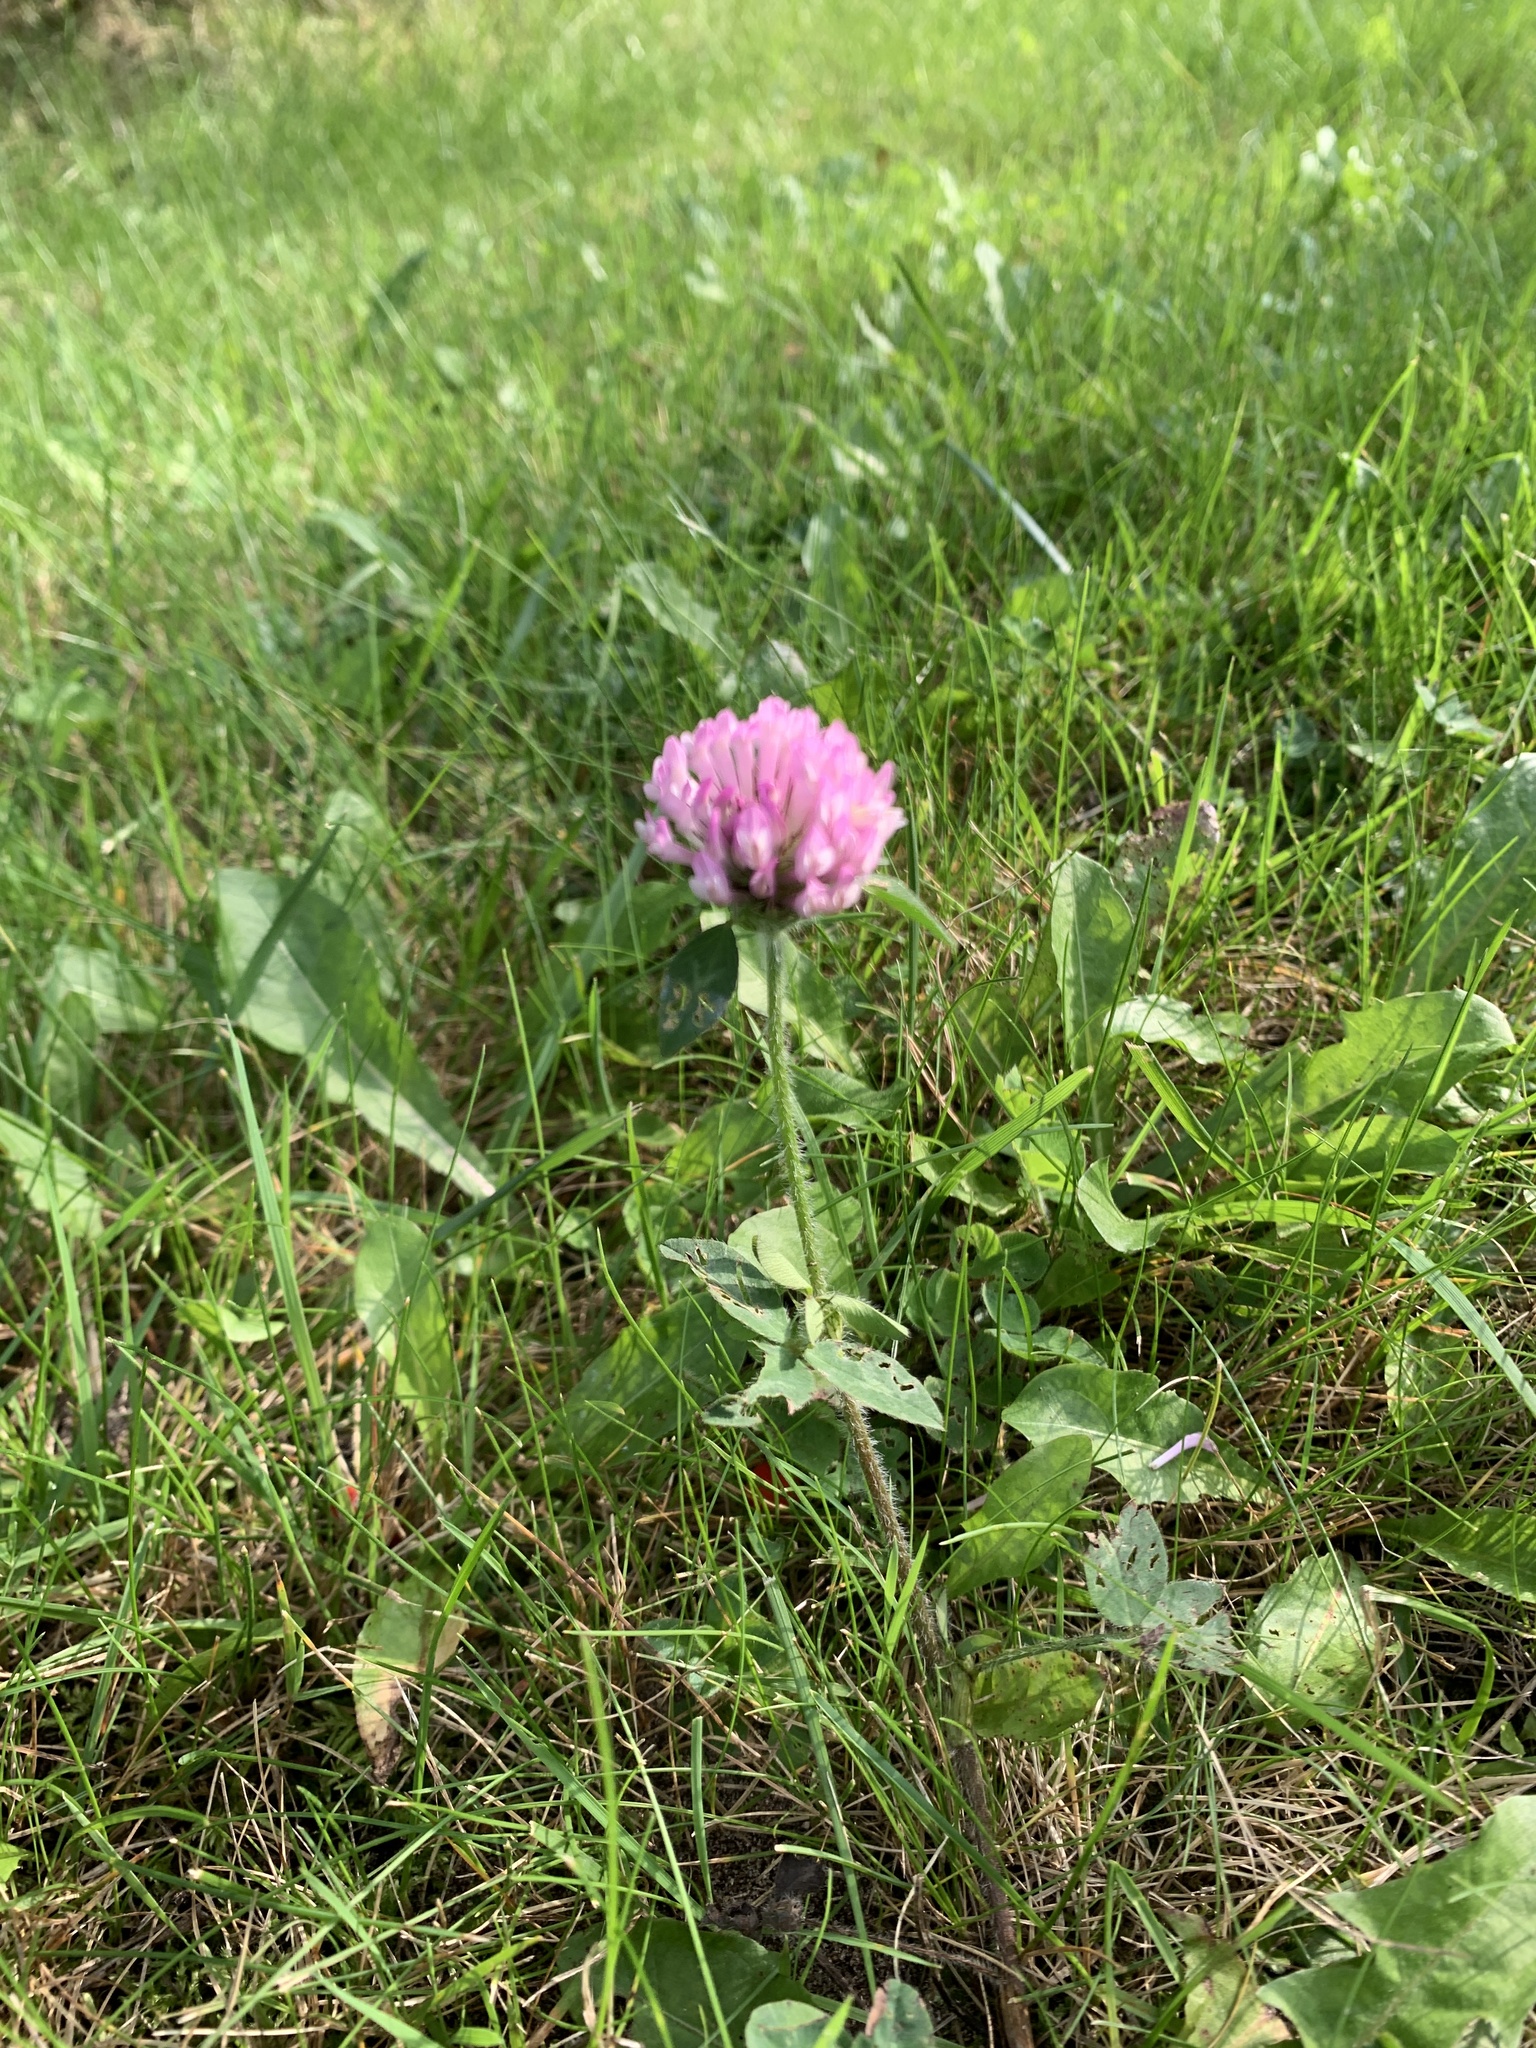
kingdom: Plantae
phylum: Tracheophyta
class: Magnoliopsida
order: Fabales
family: Fabaceae
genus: Trifolium
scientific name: Trifolium pratense
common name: Red clover
